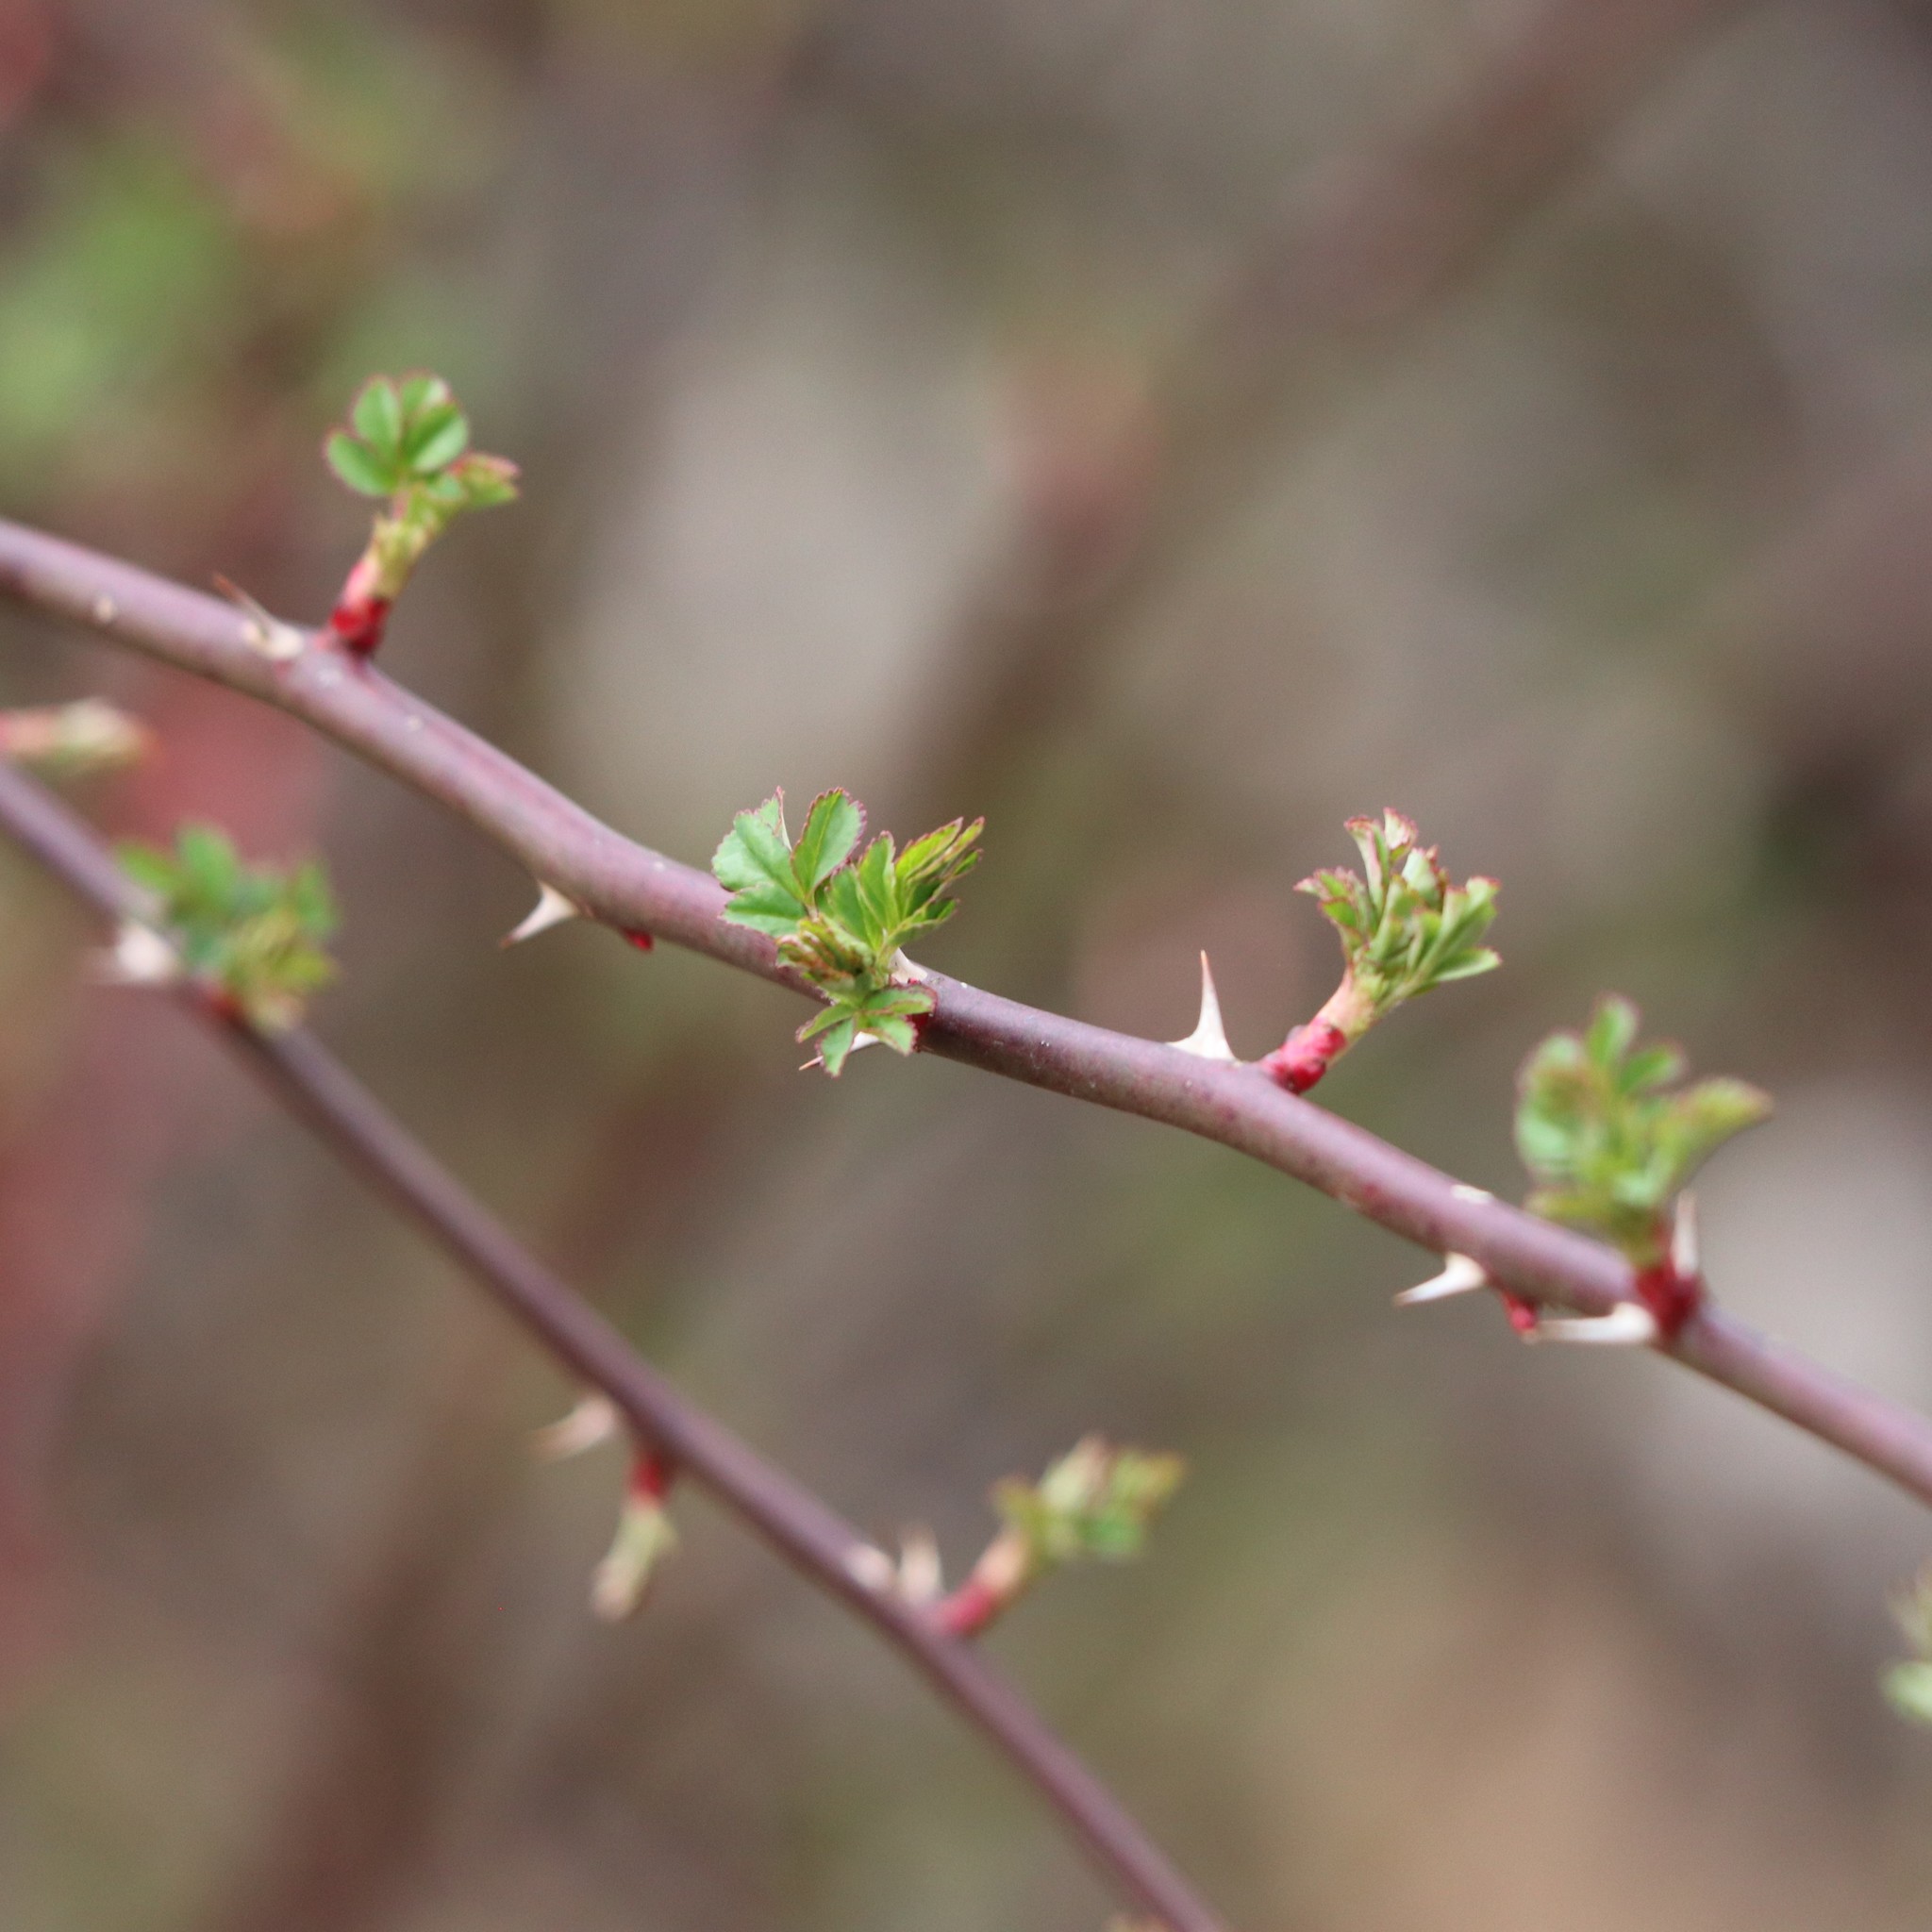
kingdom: Plantae
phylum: Tracheophyta
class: Magnoliopsida
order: Rosales
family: Rosaceae
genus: Rosa
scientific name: Rosa multiflora
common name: Multiflora rose
